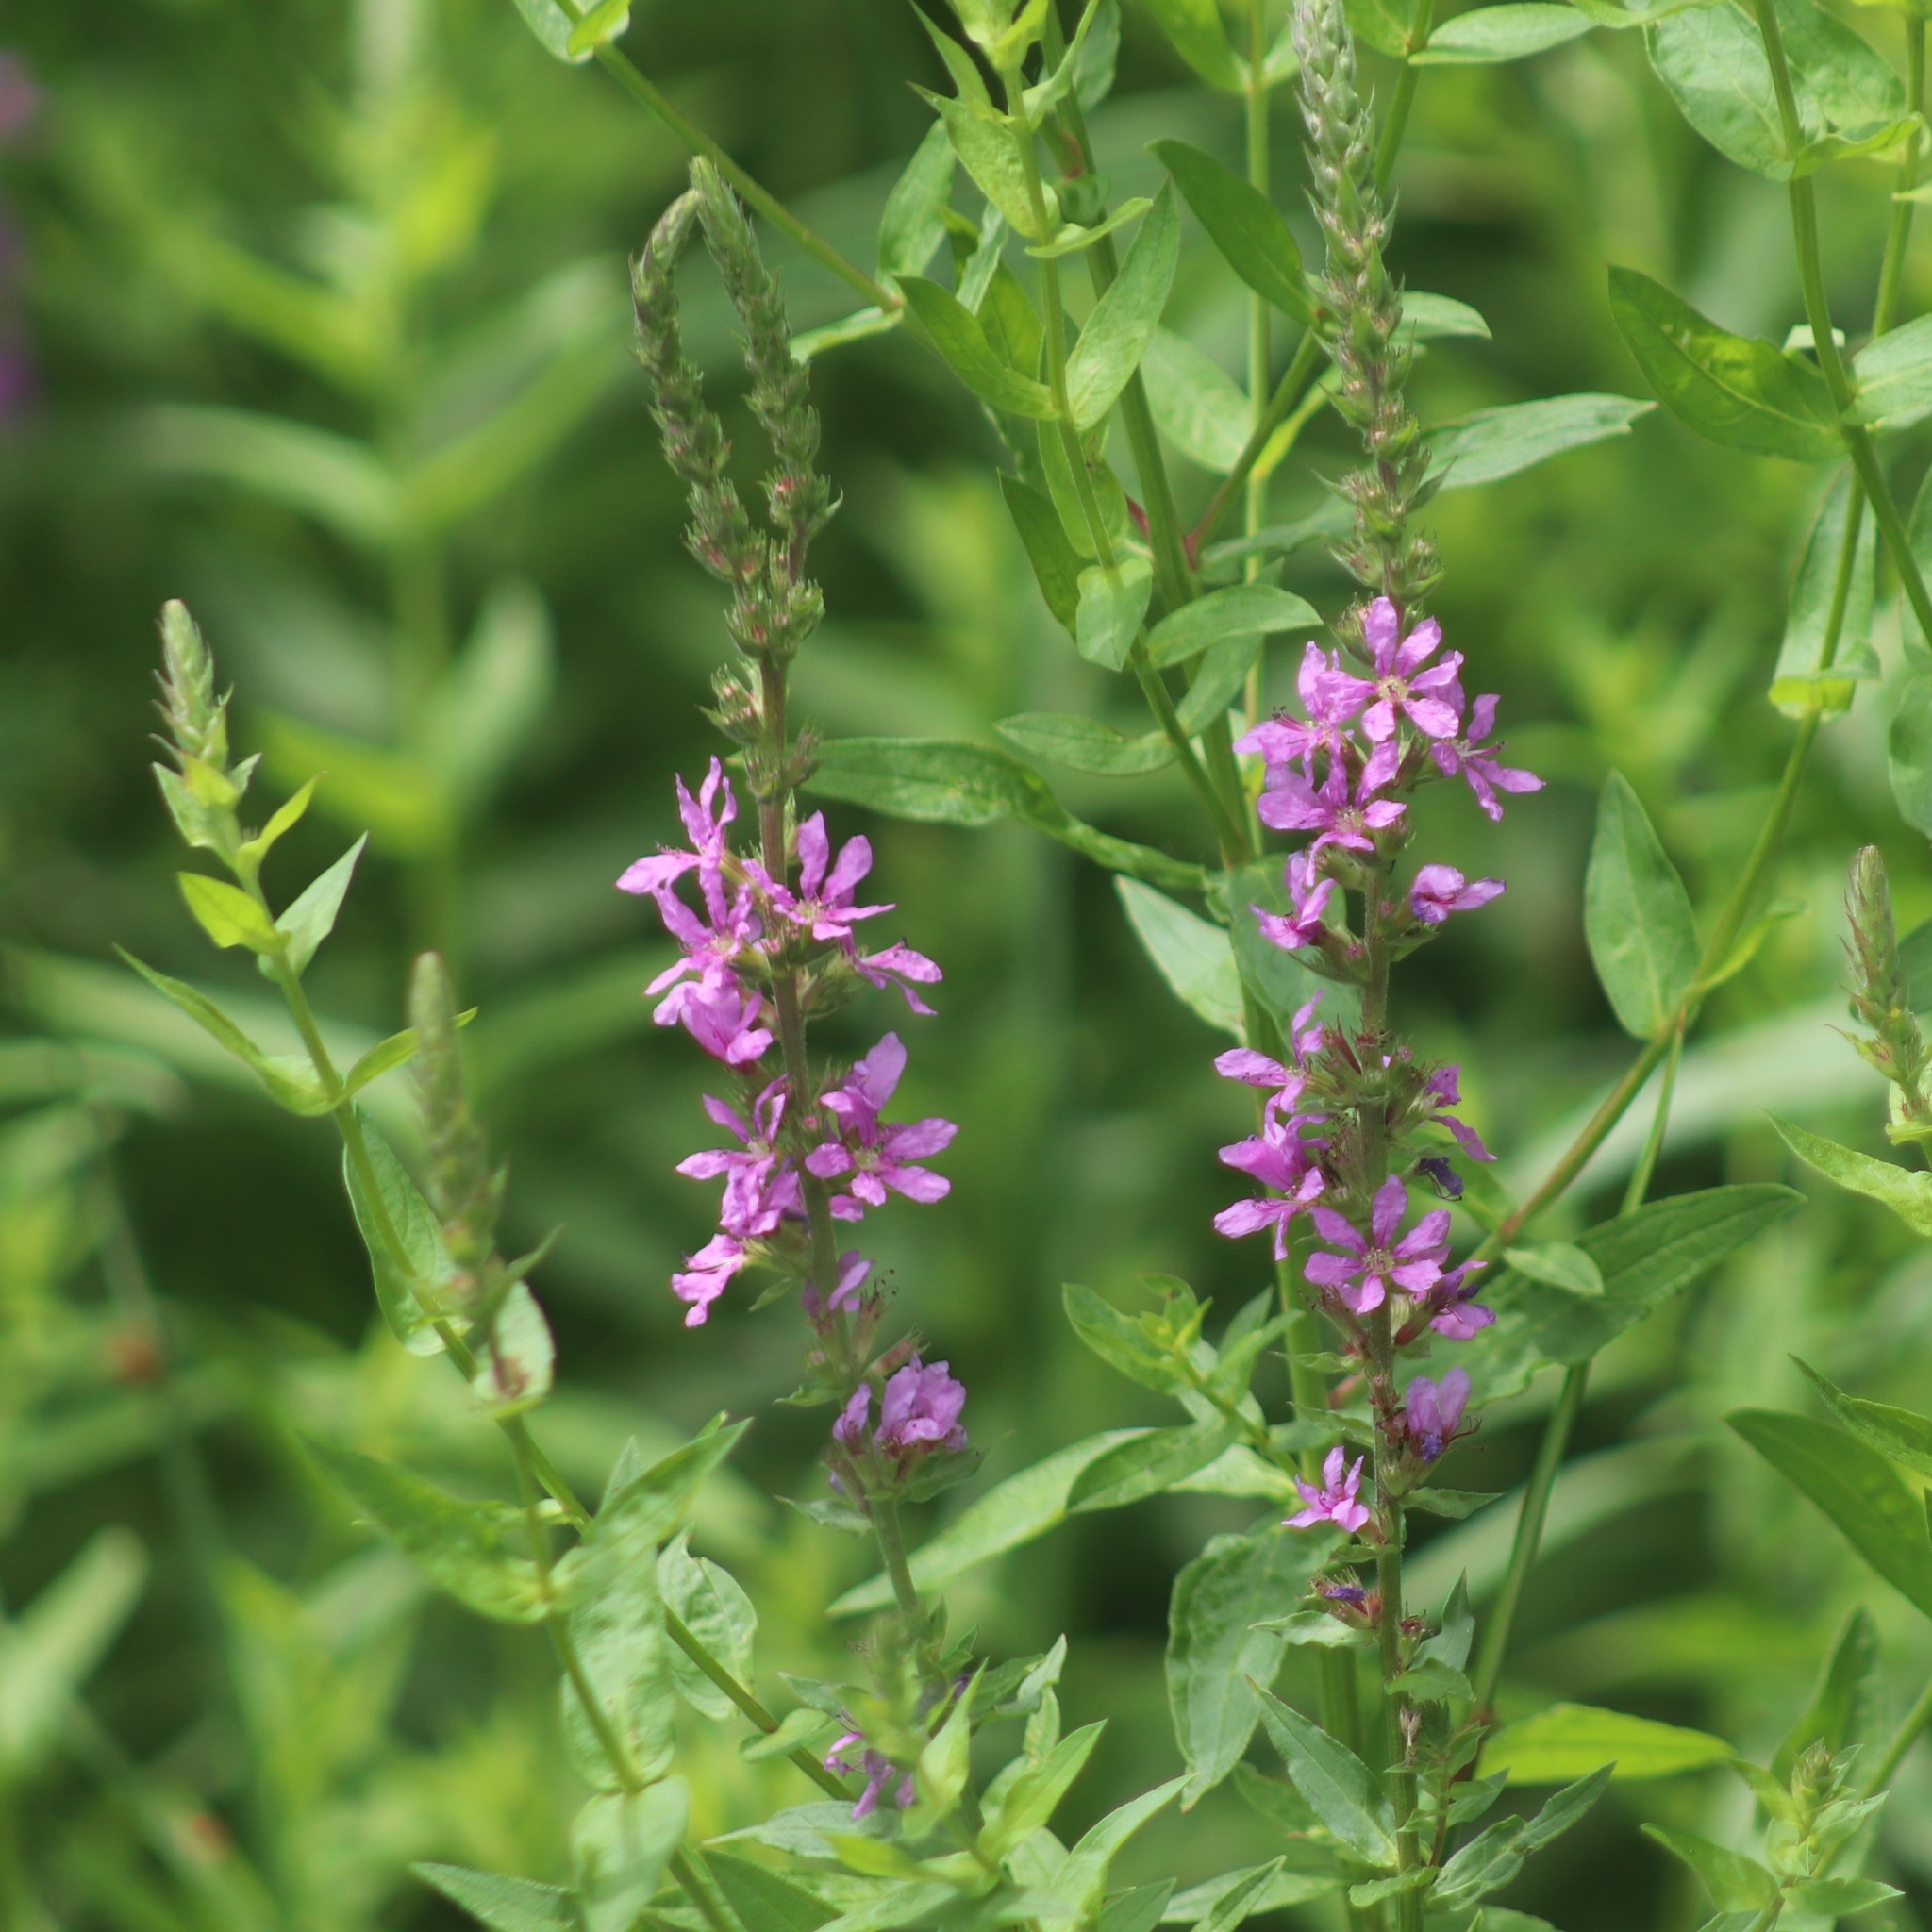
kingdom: Plantae
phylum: Tracheophyta
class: Magnoliopsida
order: Myrtales
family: Lythraceae
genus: Lythrum
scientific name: Lythrum salicaria
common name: Purple loosestrife
